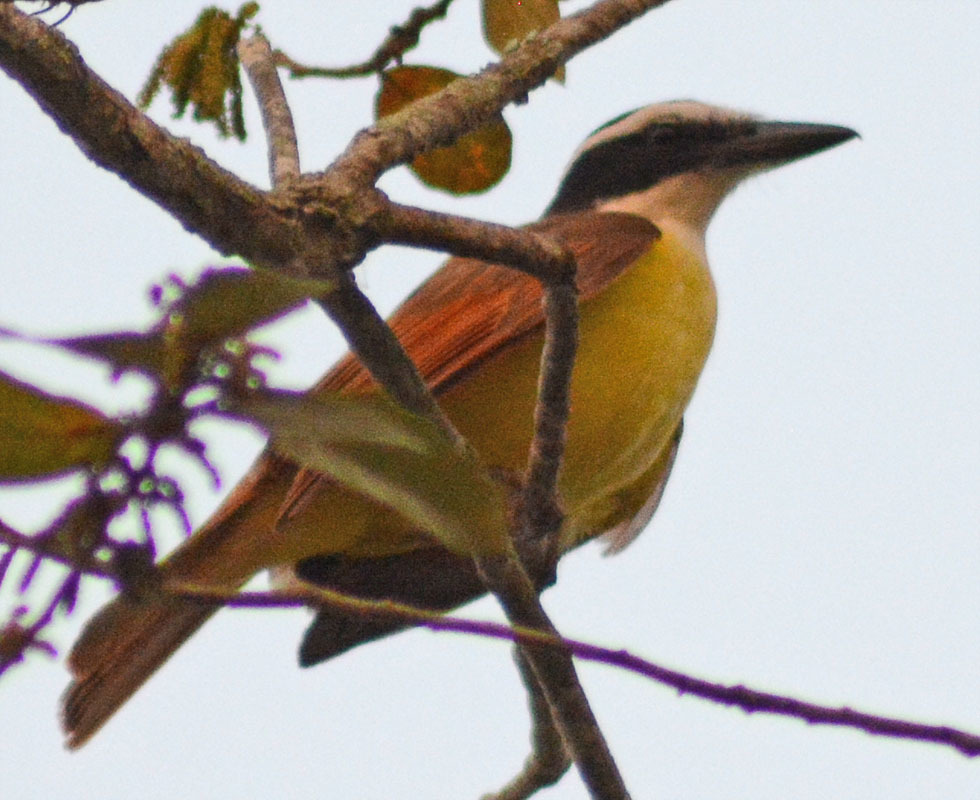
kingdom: Animalia
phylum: Chordata
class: Aves
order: Passeriformes
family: Tyrannidae
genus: Pitangus
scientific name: Pitangus sulphuratus
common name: Great kiskadee
